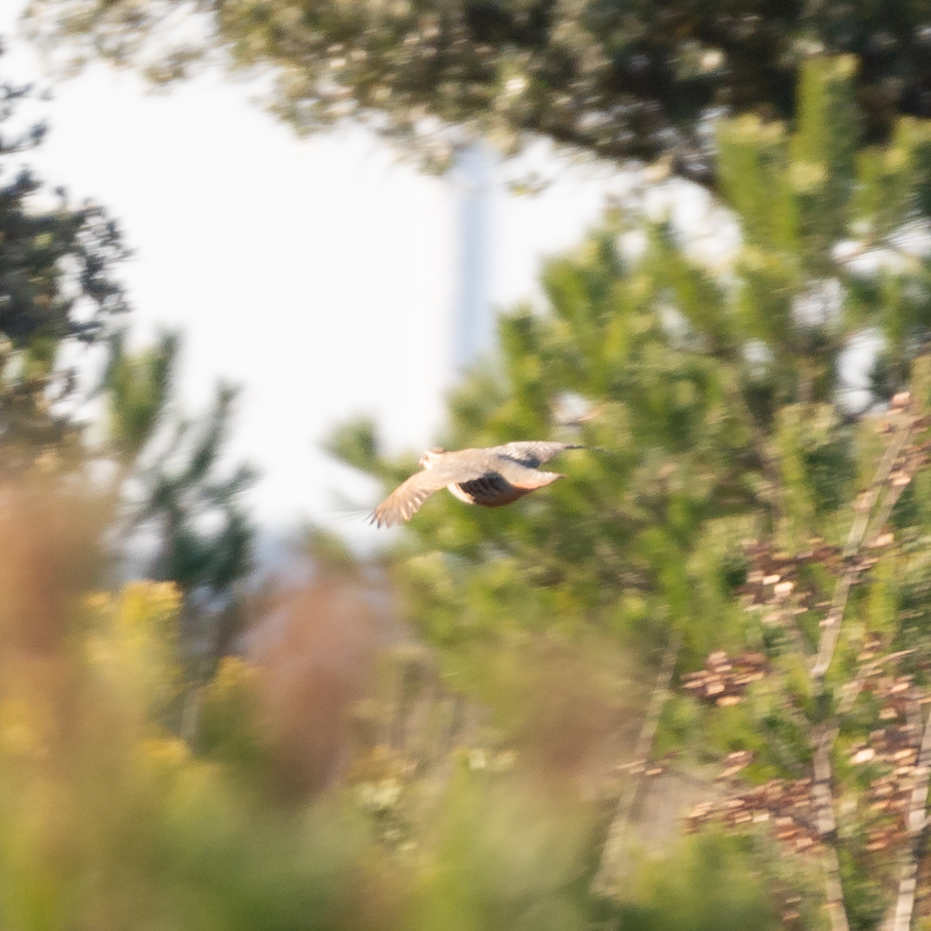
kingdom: Animalia
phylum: Chordata
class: Aves
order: Galliformes
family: Phasianidae
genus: Alectoris
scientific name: Alectoris rufa
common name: Red-legged partridge
